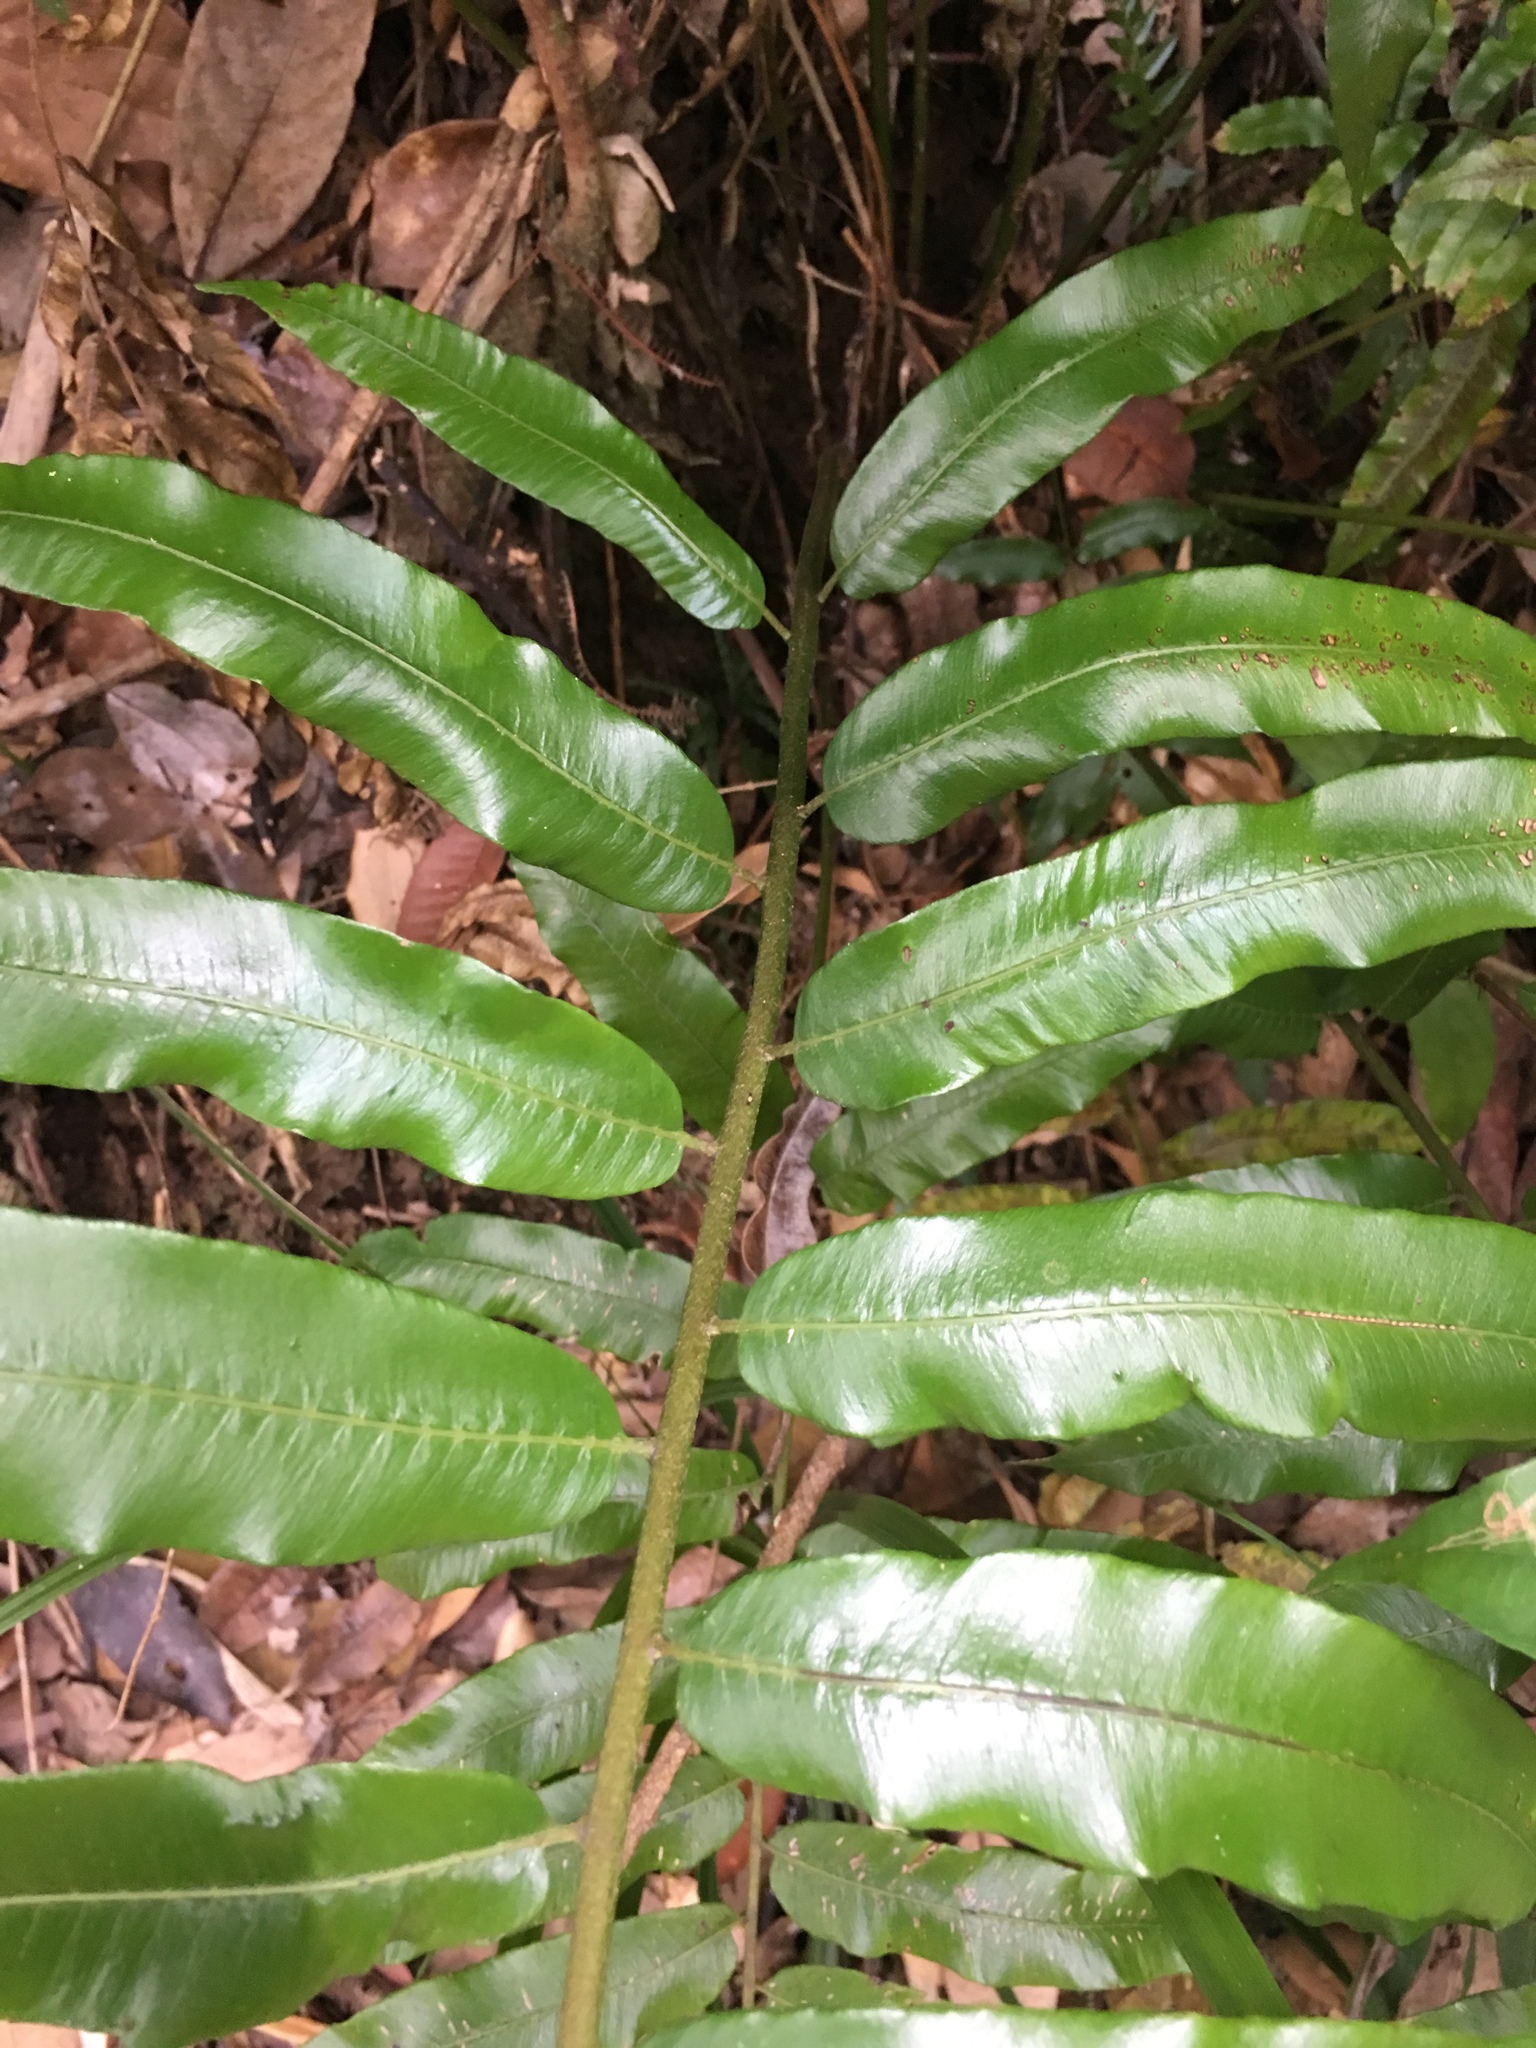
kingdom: Plantae
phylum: Tracheophyta
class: Polypodiopsida
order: Polypodiales
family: Blechnaceae
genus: Stenochlaena
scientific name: Stenochlaena palustris
